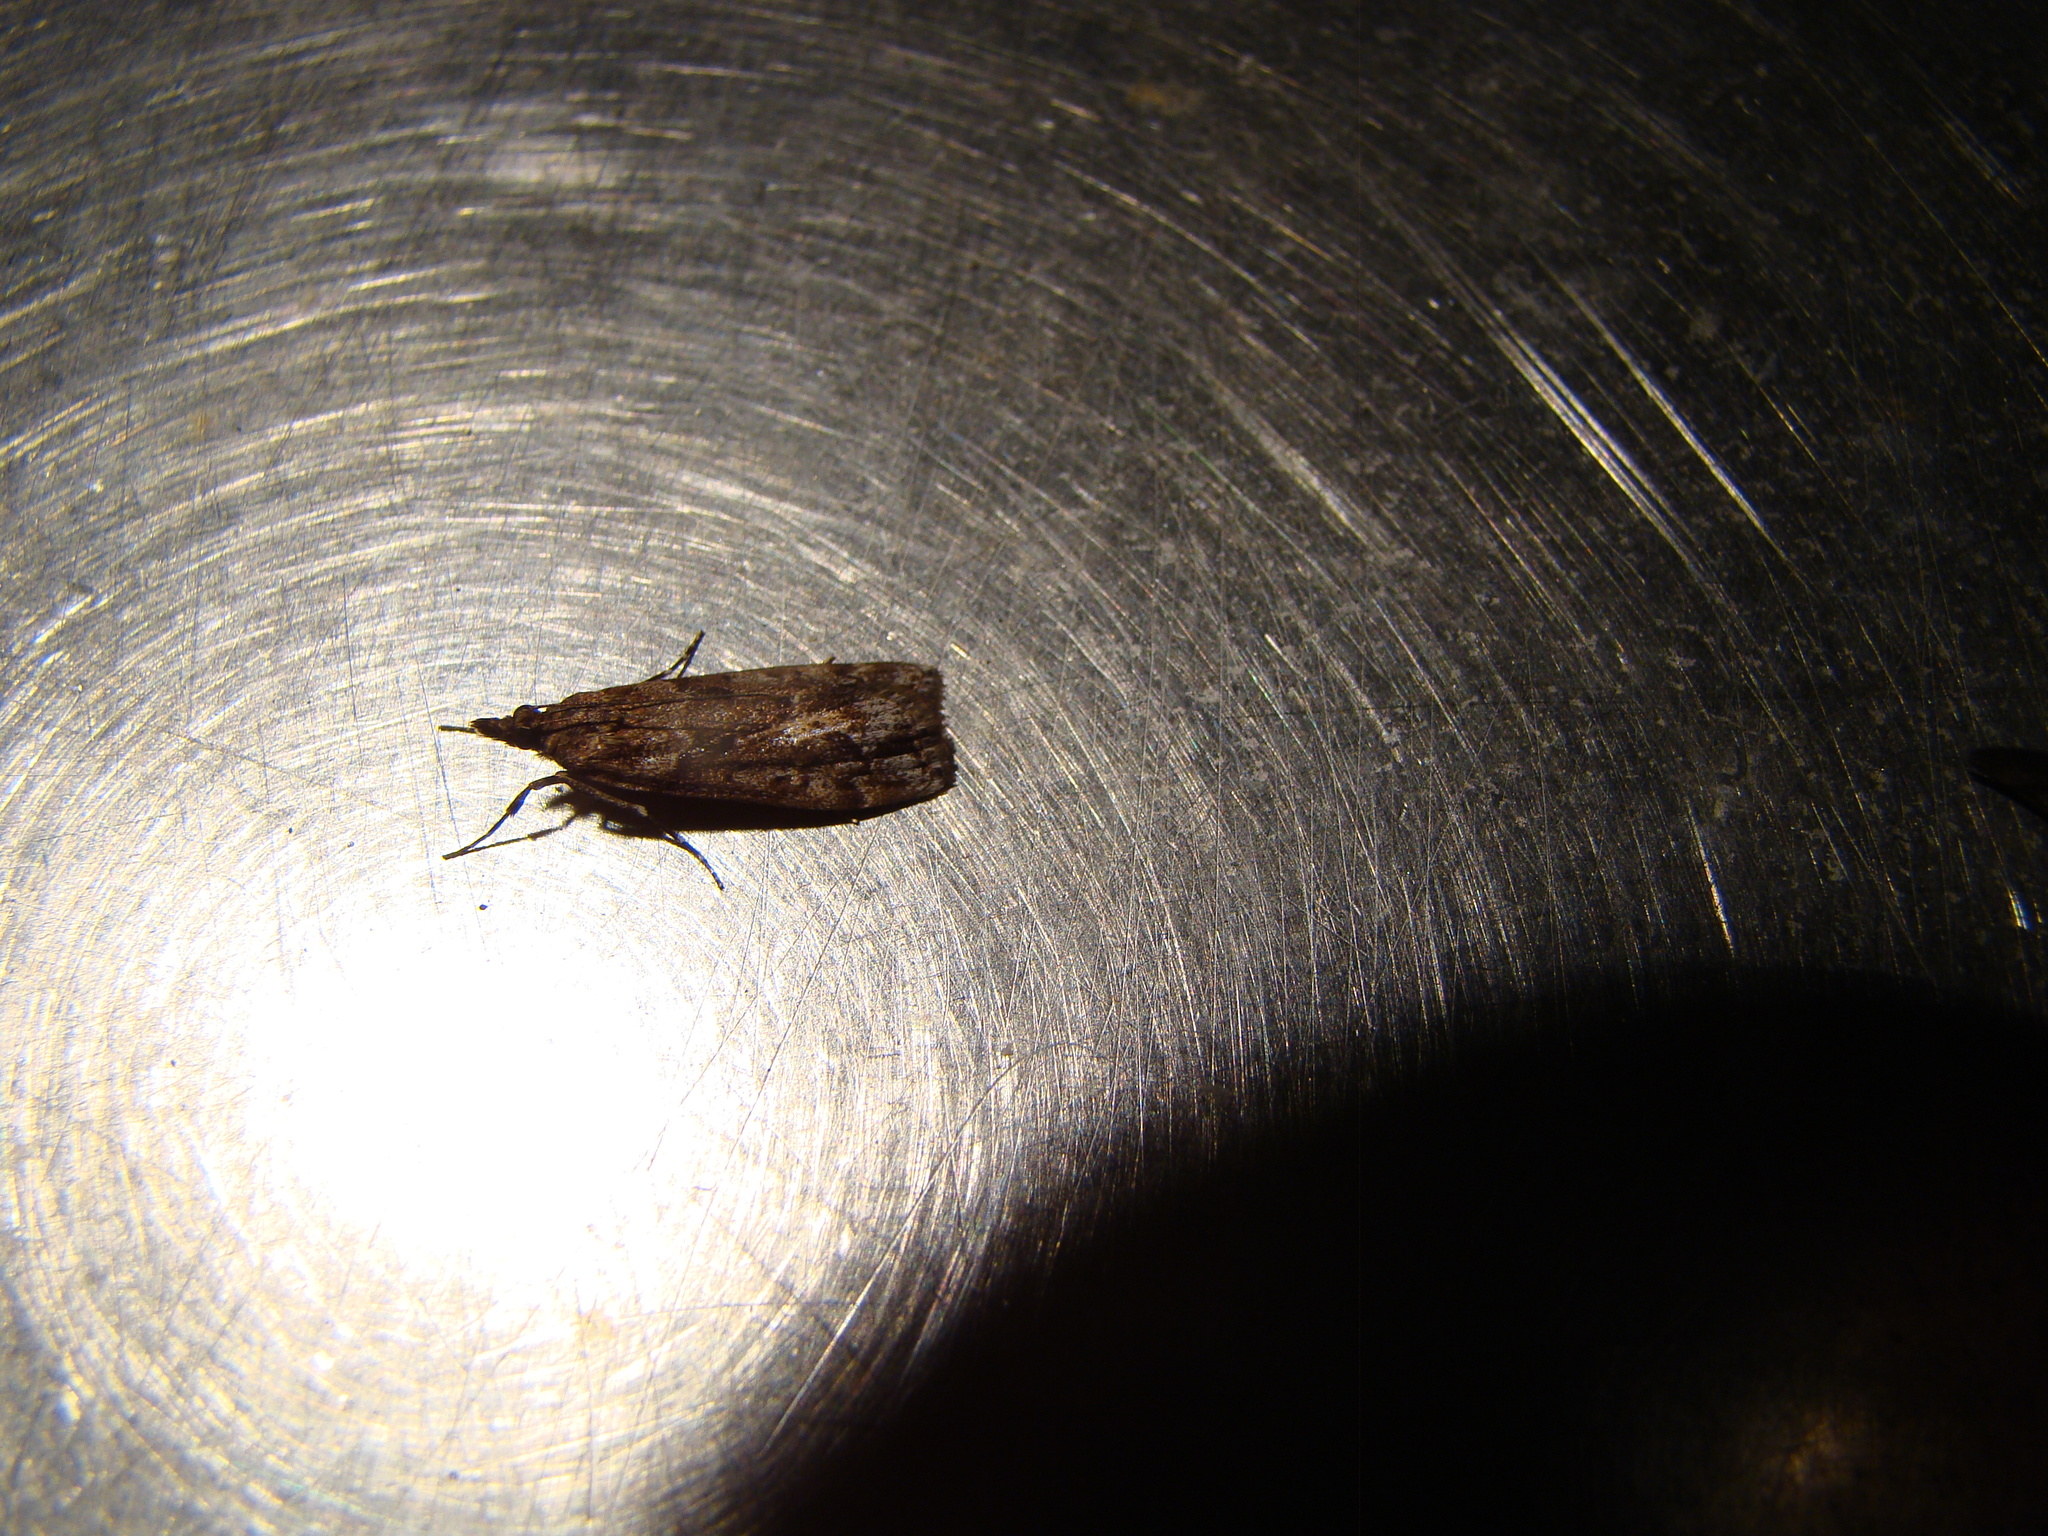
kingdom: Animalia
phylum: Arthropoda
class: Insecta
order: Lepidoptera
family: Crambidae
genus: Eudonia
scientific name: Eudonia submarginalis
